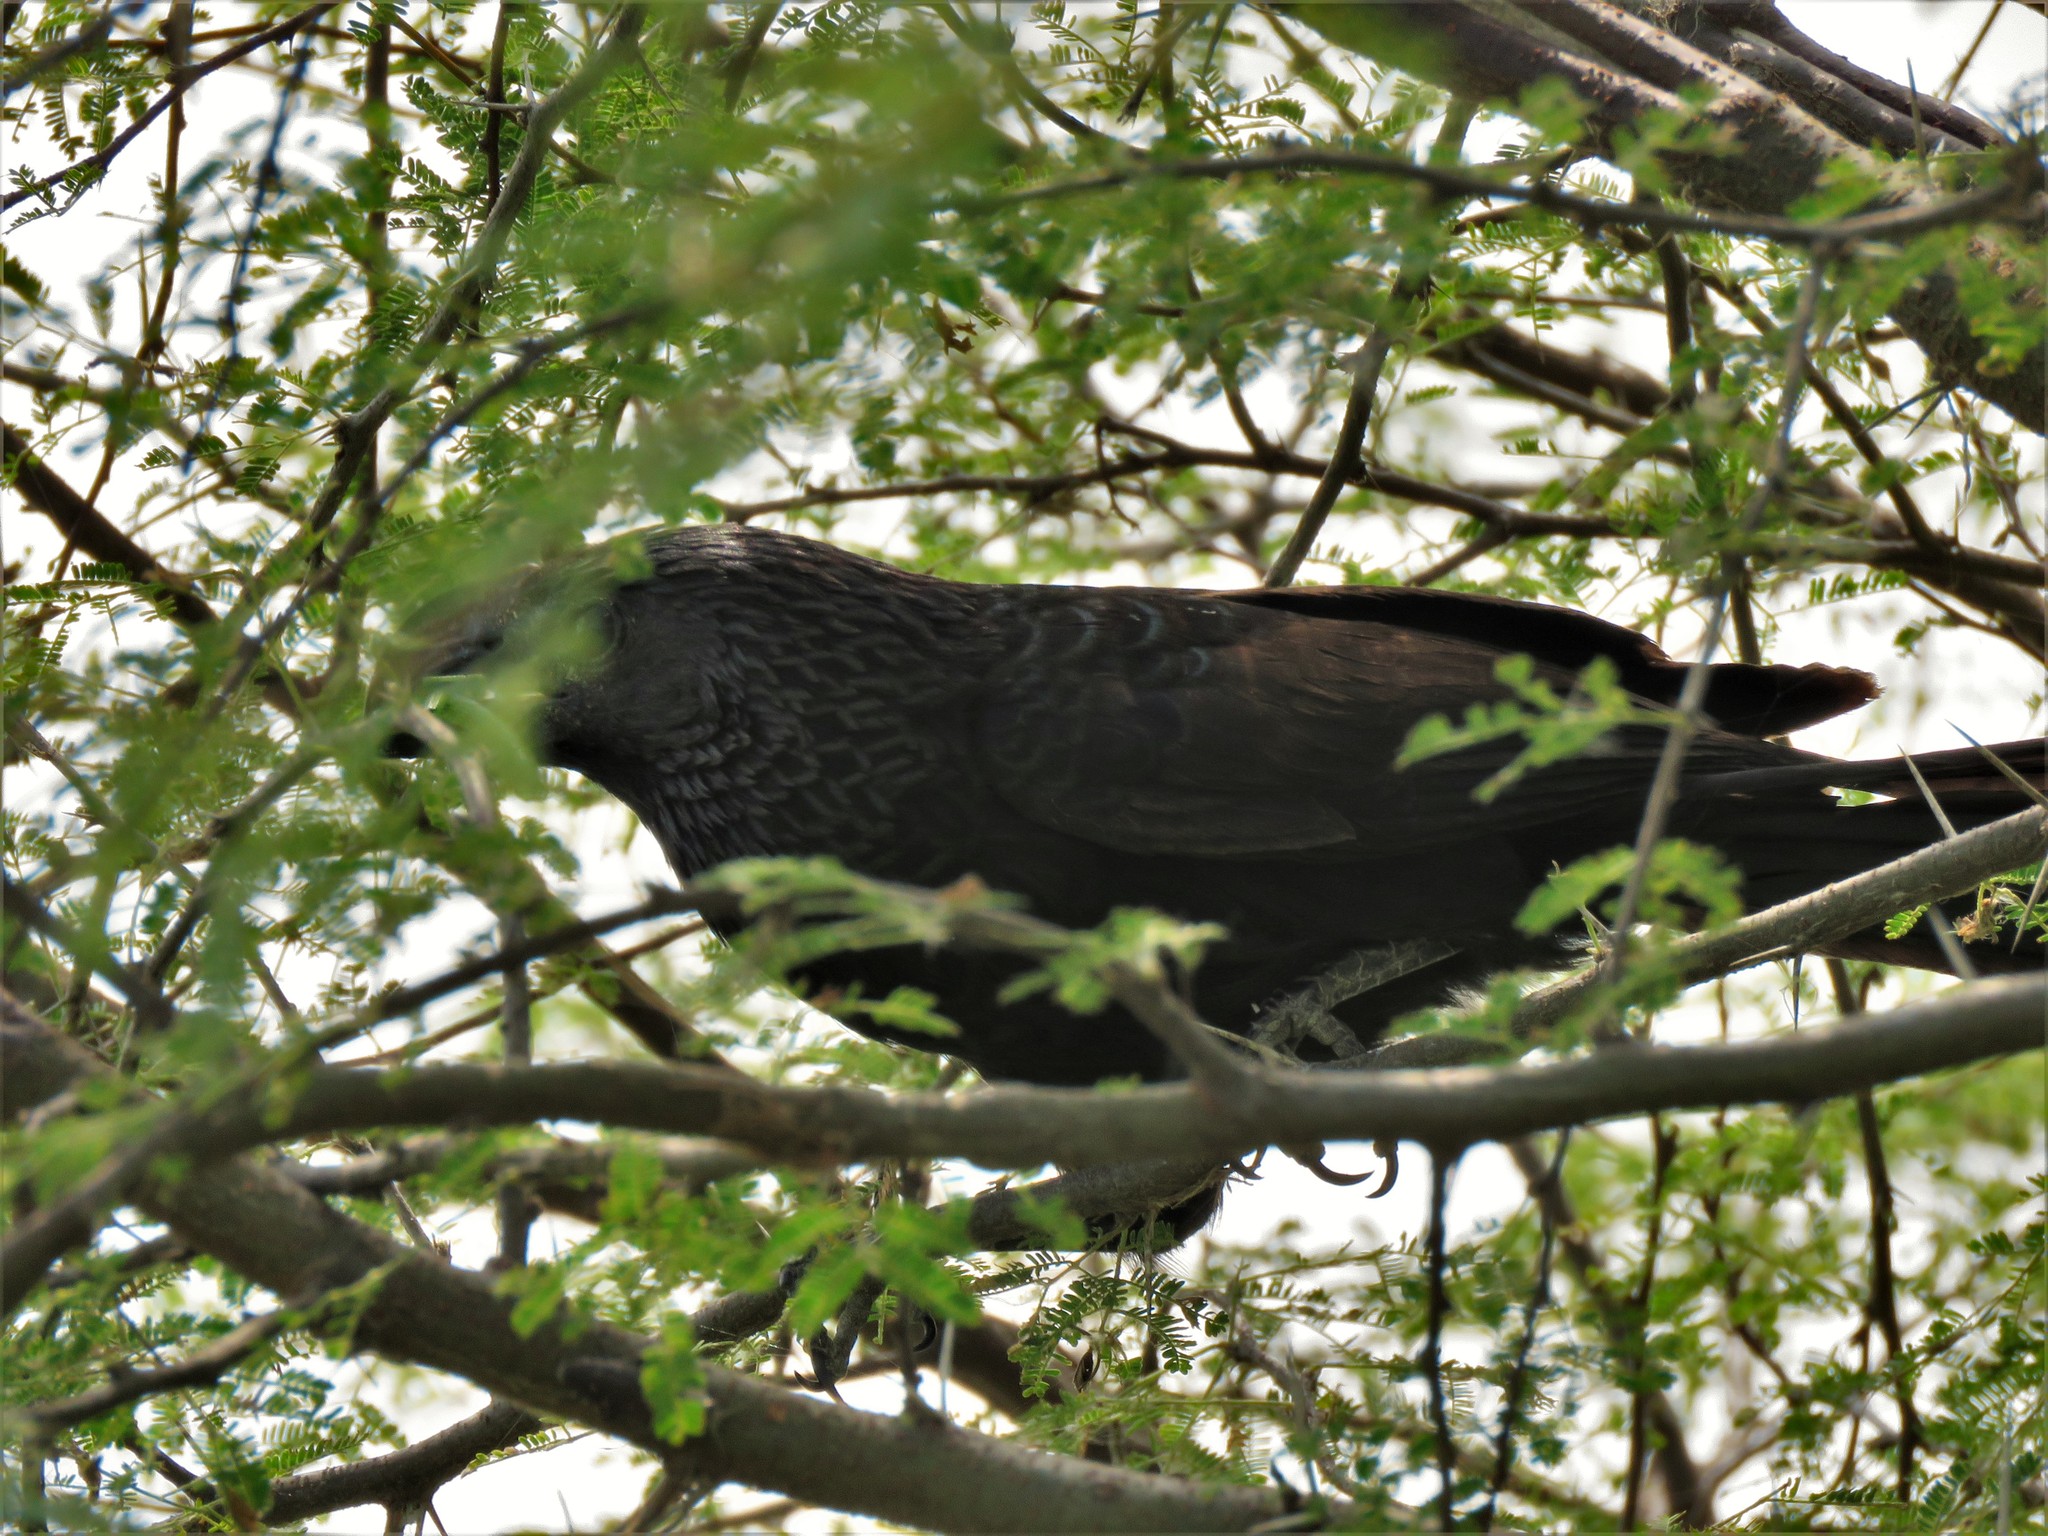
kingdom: Animalia
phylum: Chordata
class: Aves
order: Cuculiformes
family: Cuculidae
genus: Crotophaga
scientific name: Crotophaga sulcirostris
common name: Groove-billed ani
